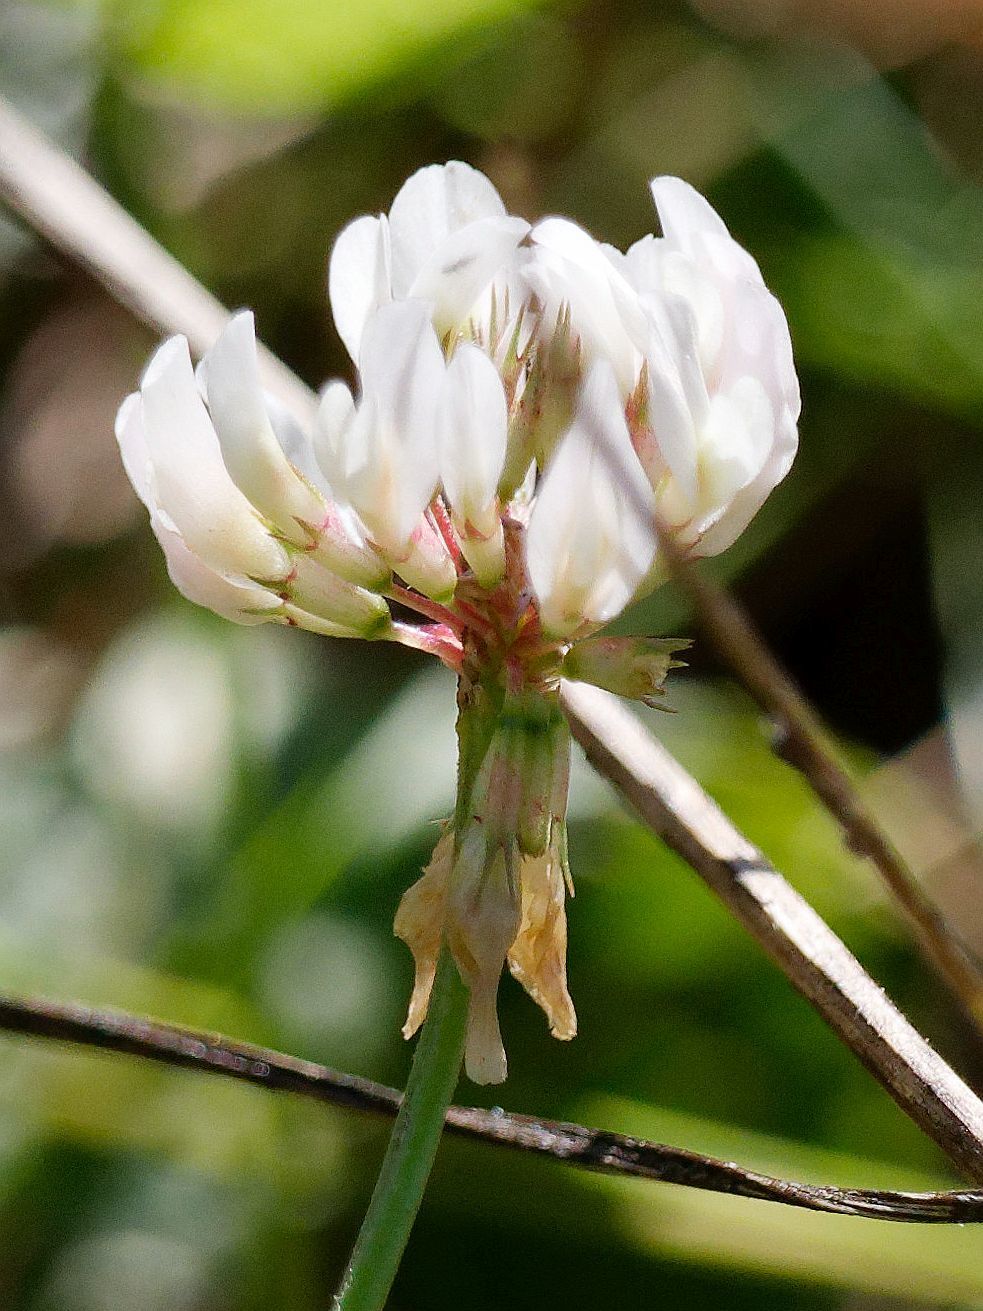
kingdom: Plantae
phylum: Tracheophyta
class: Magnoliopsida
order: Fabales
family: Fabaceae
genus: Trifolium
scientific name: Trifolium repens
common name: White clover
